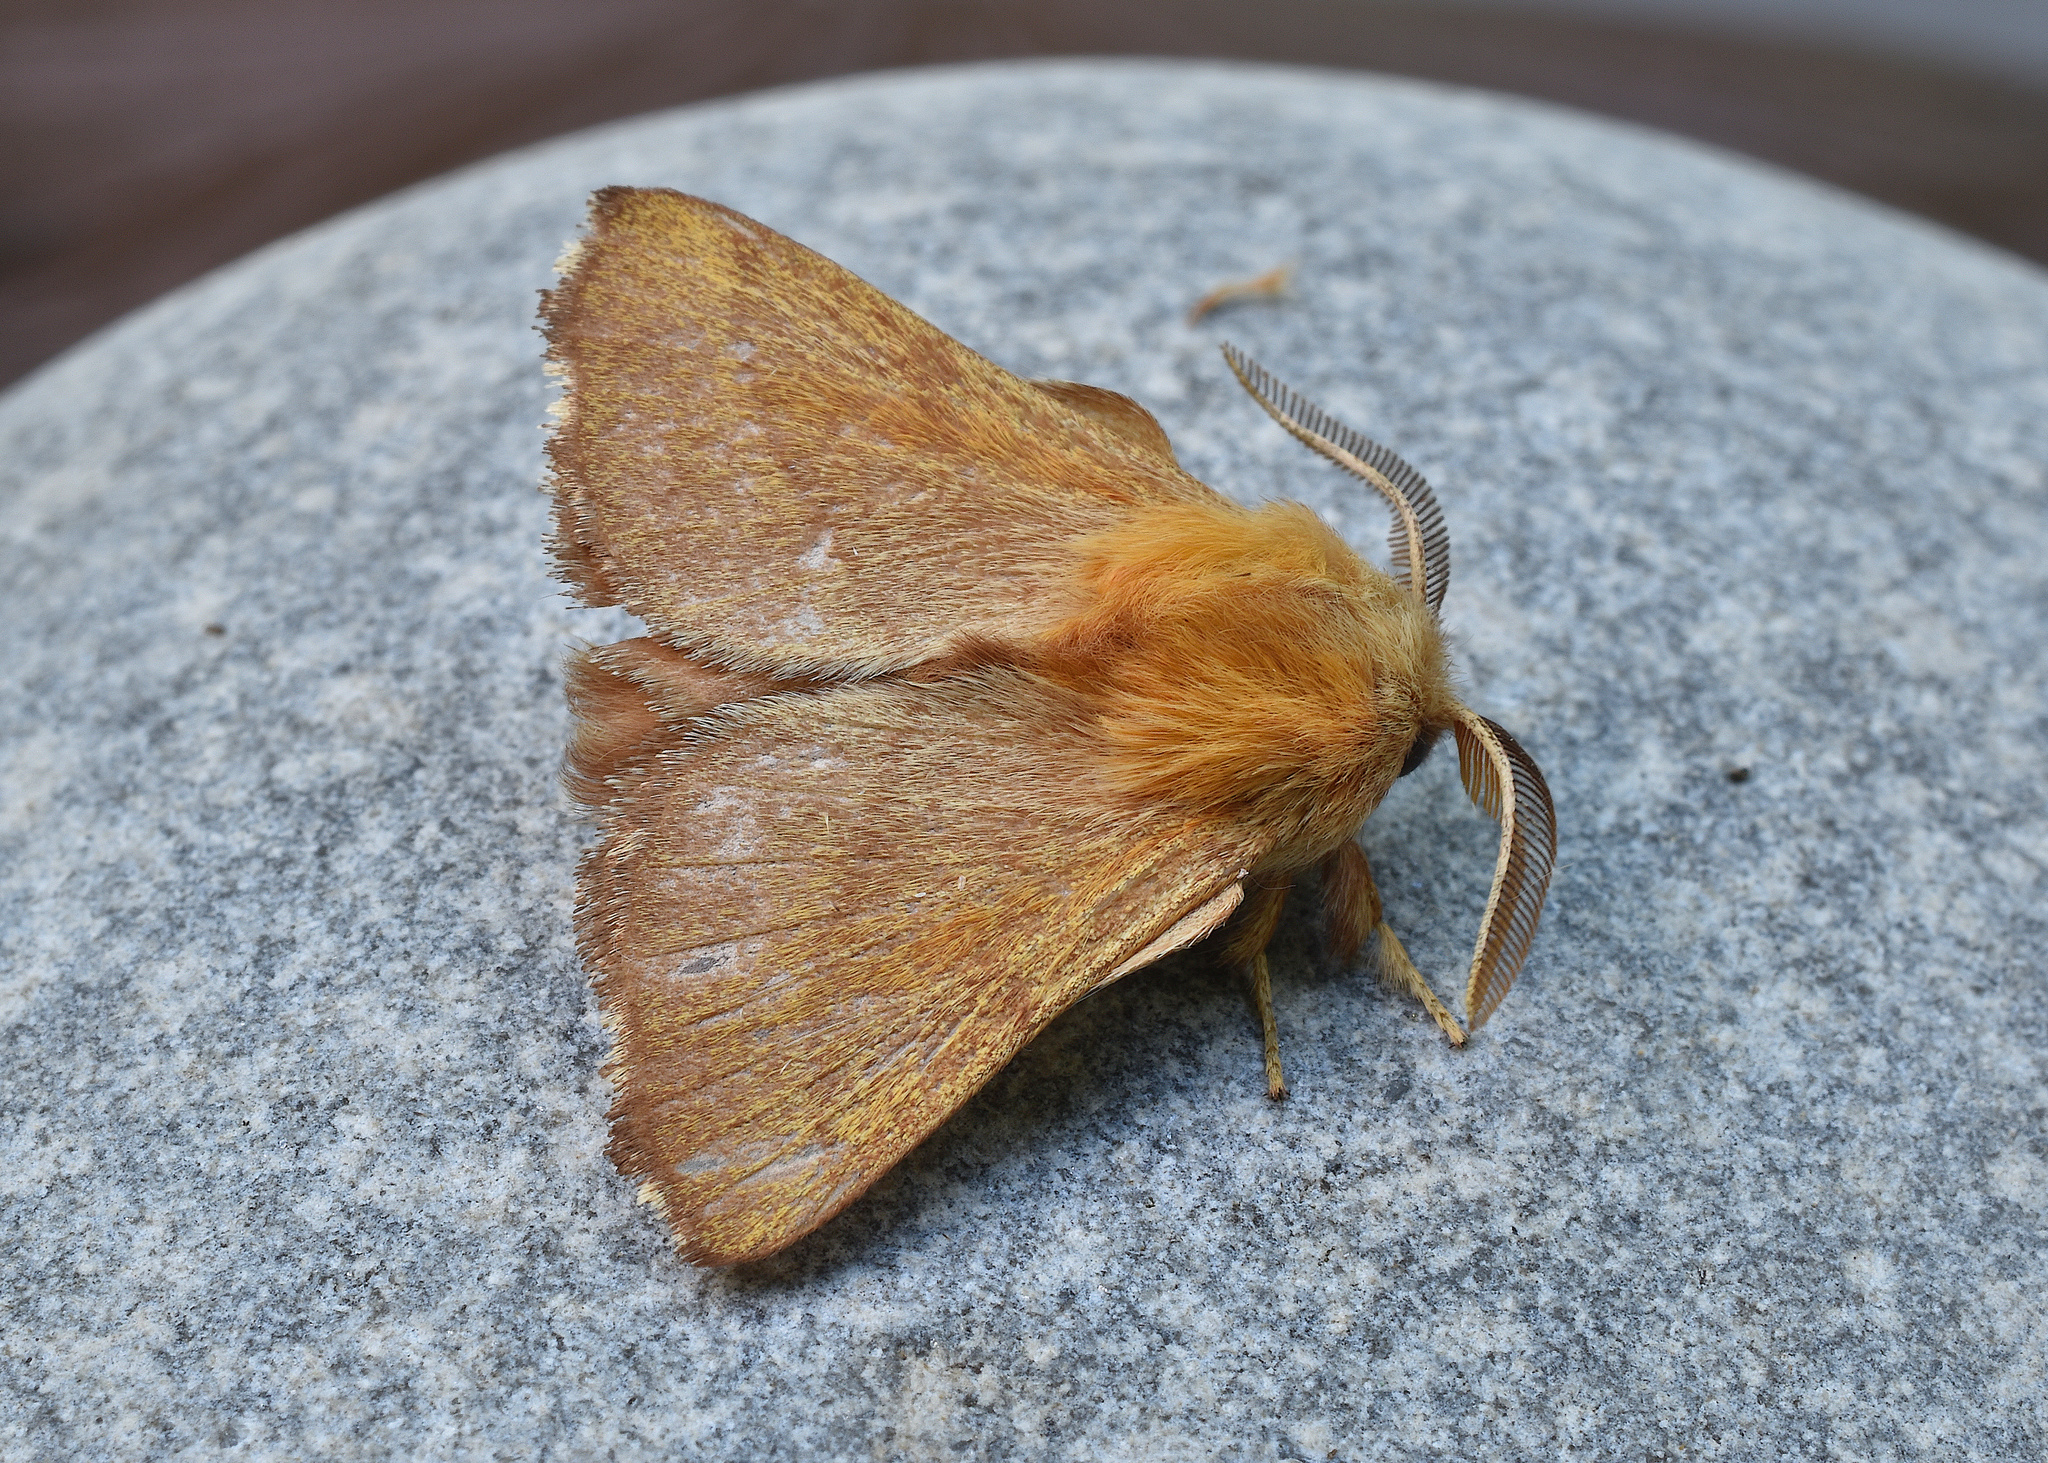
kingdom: Animalia
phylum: Arthropoda
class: Insecta
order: Lepidoptera
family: Lasiocampidae
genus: Malacosoma
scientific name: Malacosoma disstria
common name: Forest tent caterpillar
